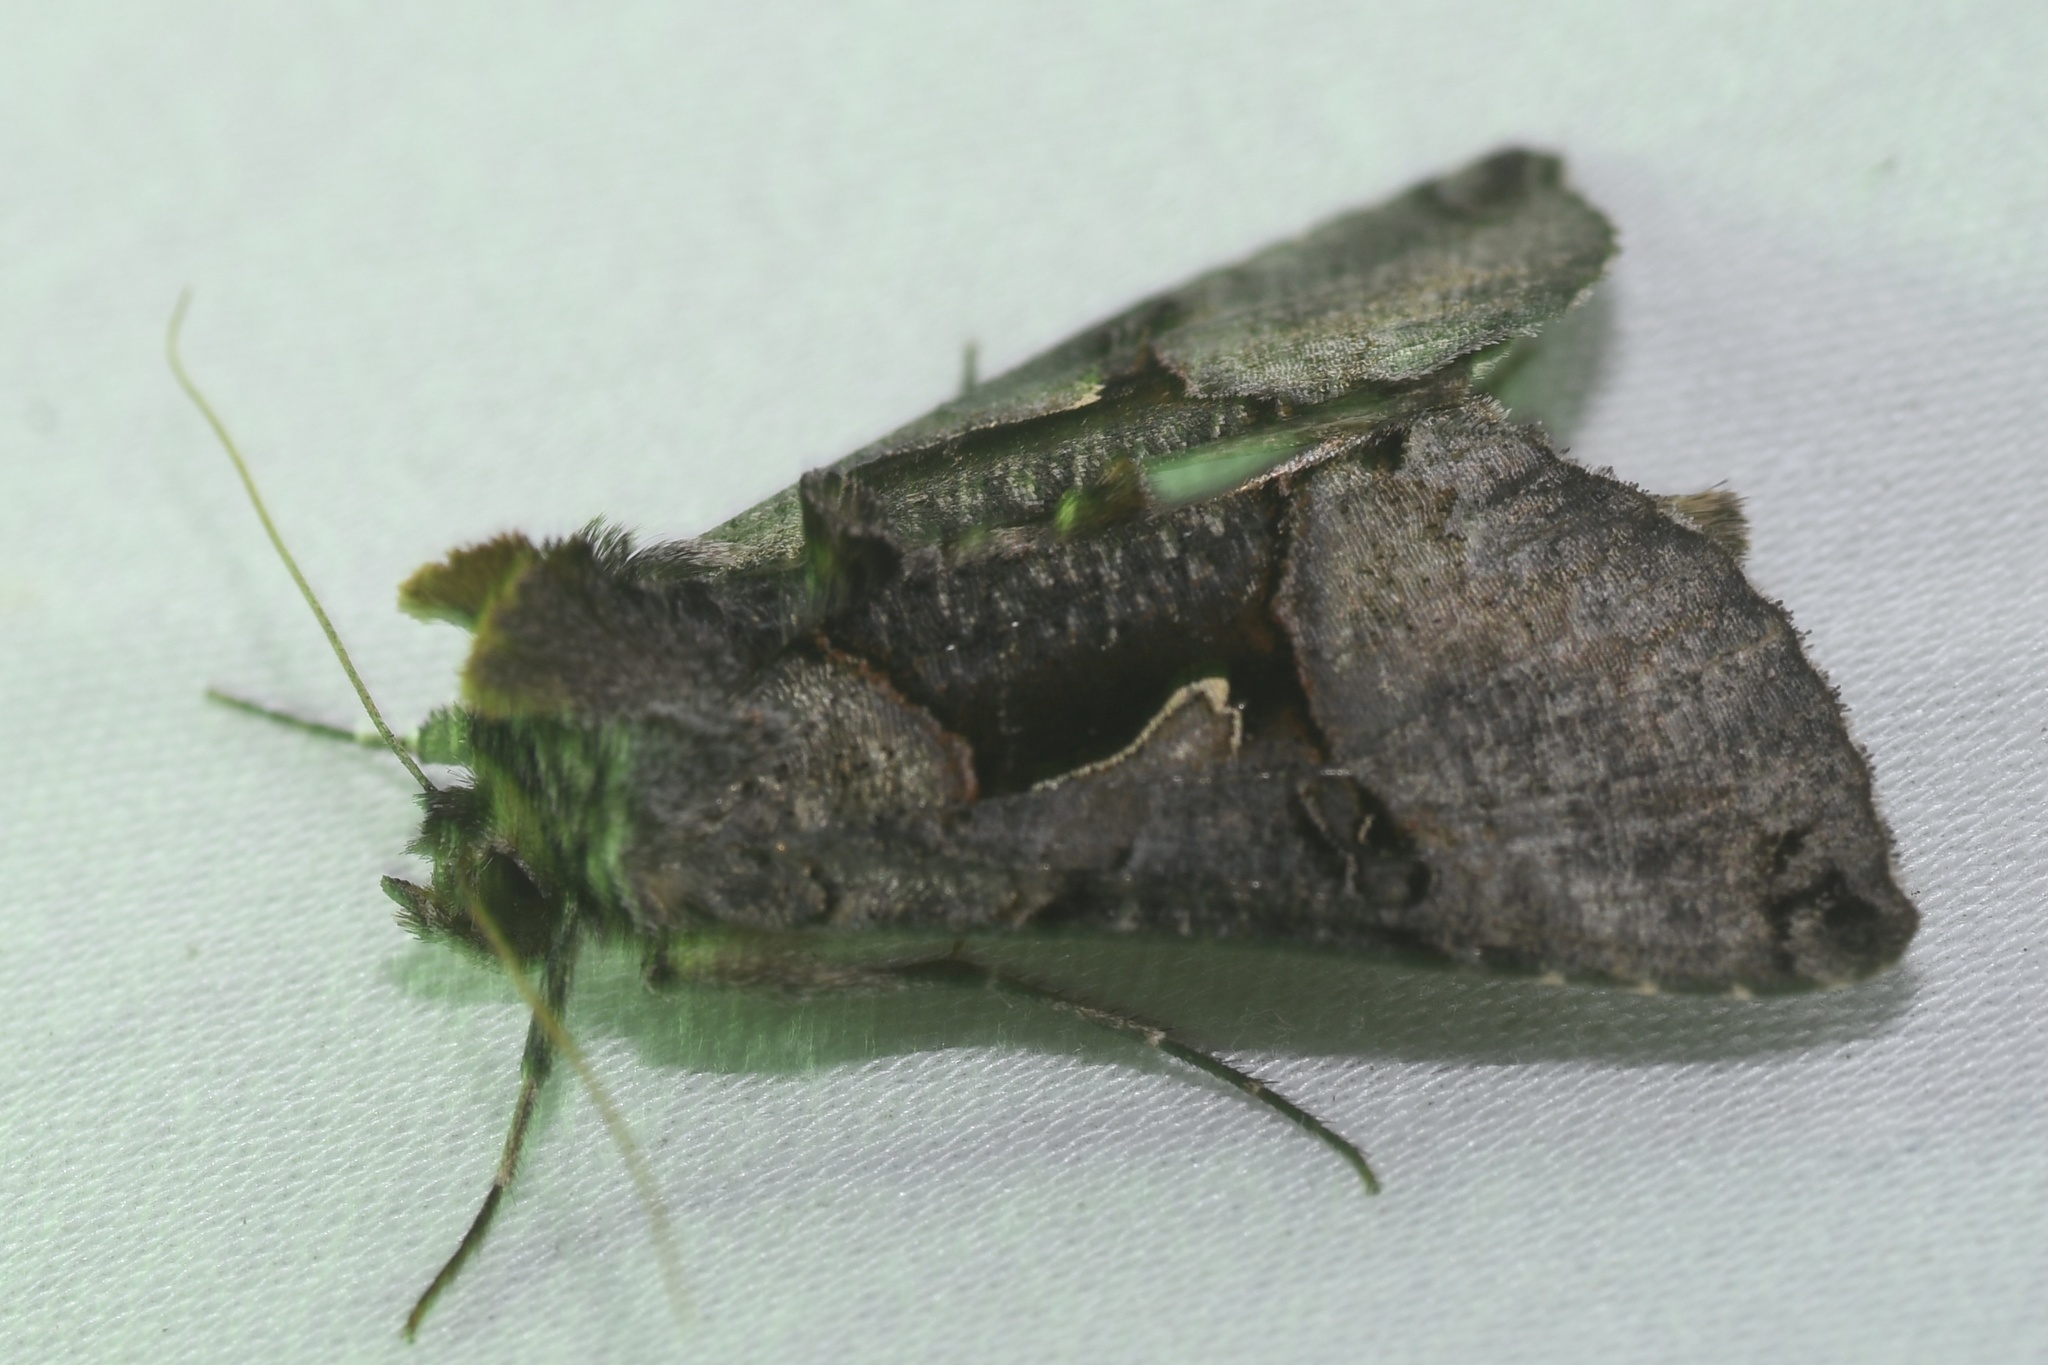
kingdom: Animalia
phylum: Arthropoda
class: Insecta
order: Lepidoptera
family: Noctuidae
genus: Autographa
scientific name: Autographa ampla
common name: Large looper moth
